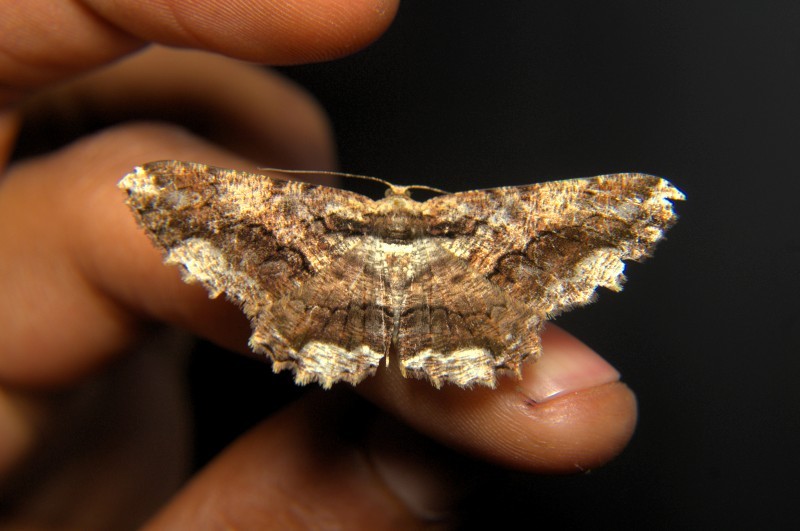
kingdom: Animalia
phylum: Arthropoda
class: Insecta
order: Lepidoptera
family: Geometridae
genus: Coremecis
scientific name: Coremecis nigrovittata
